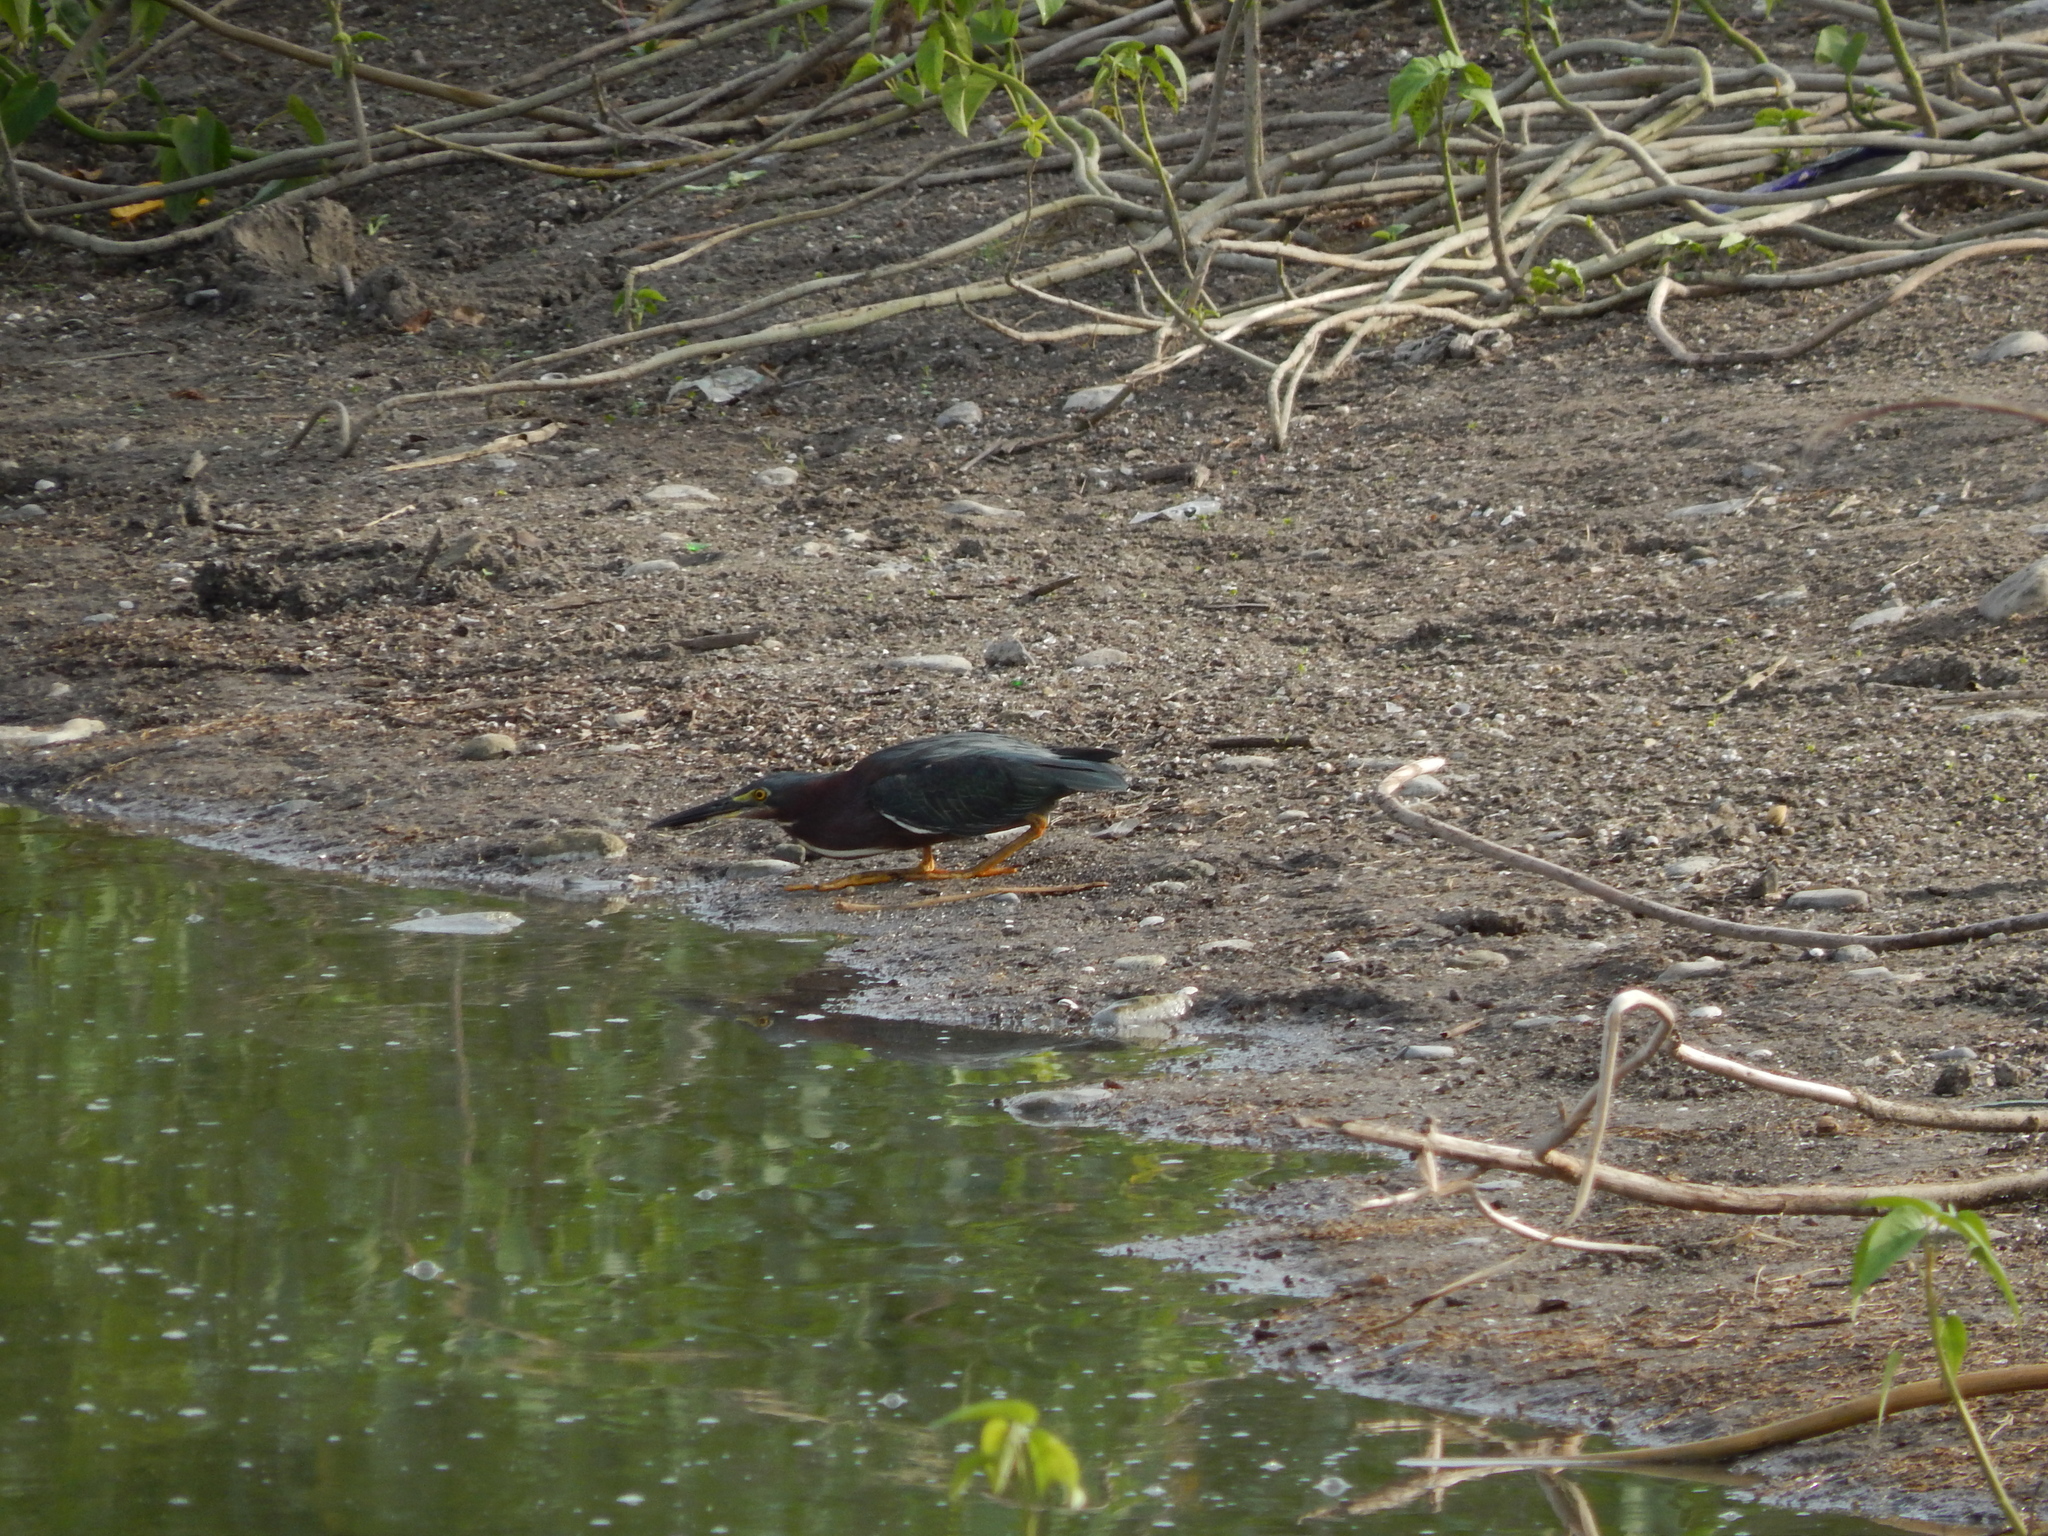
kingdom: Animalia
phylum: Chordata
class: Aves
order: Pelecaniformes
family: Ardeidae
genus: Butorides
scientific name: Butorides virescens
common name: Green heron
